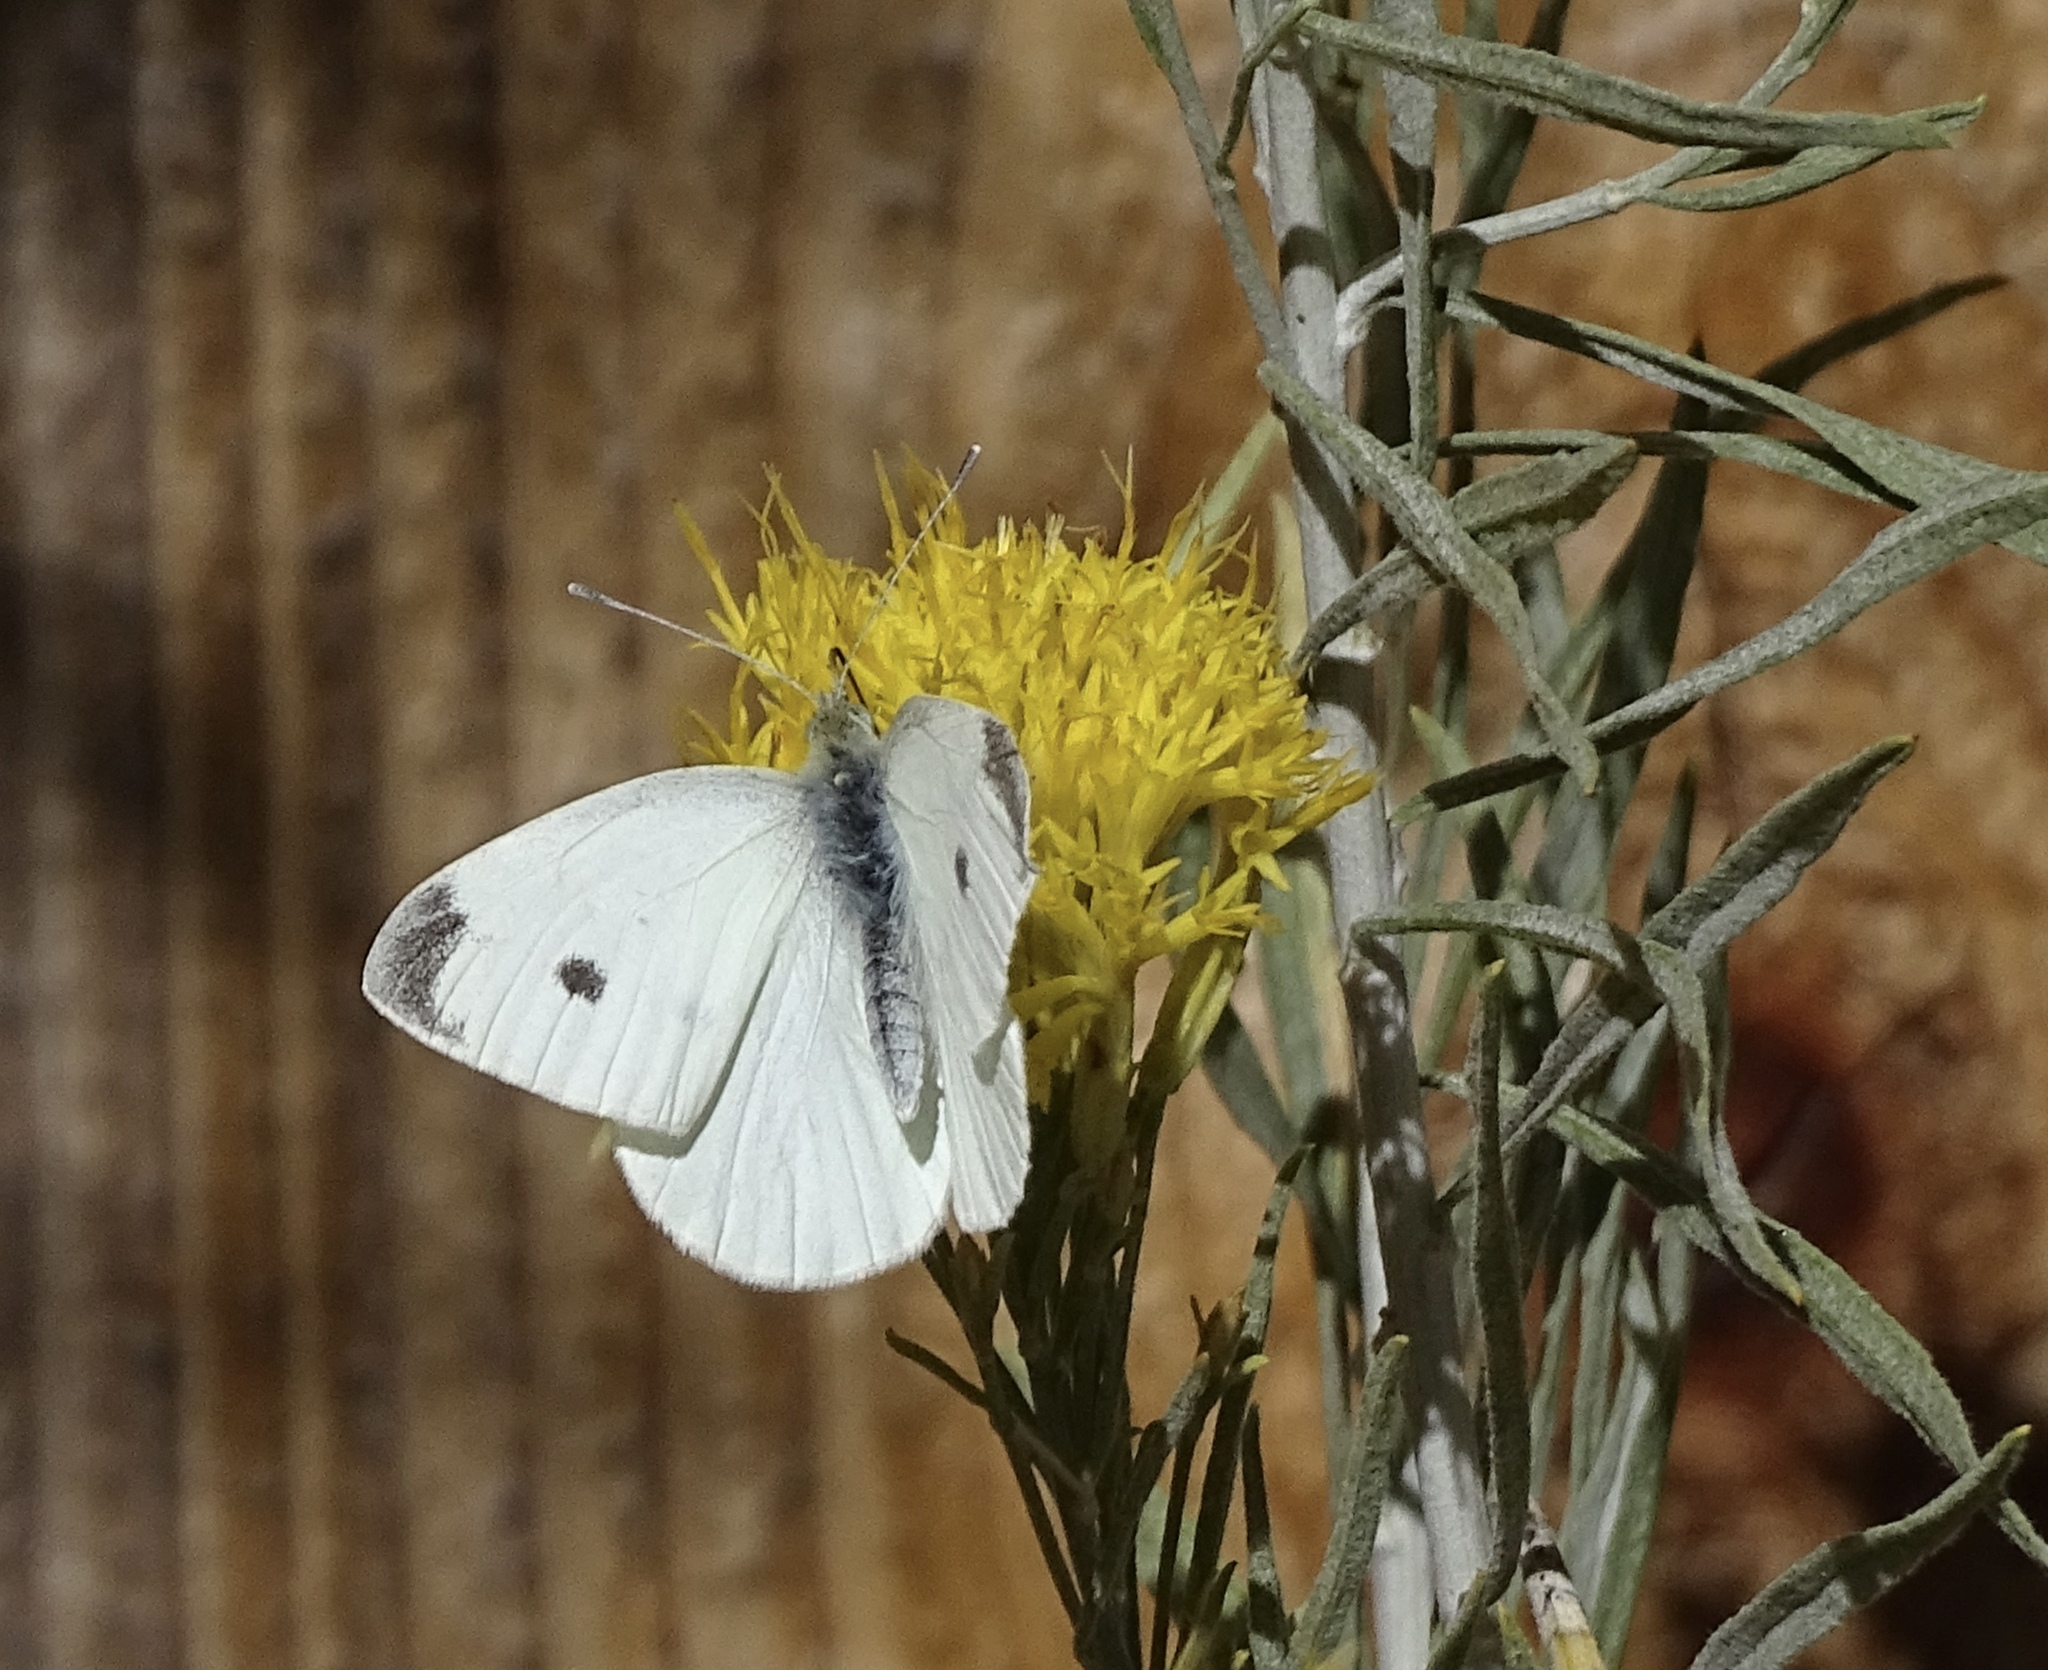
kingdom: Animalia
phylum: Arthropoda
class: Insecta
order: Lepidoptera
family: Pieridae
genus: Pieris
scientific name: Pieris rapae
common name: Small white
